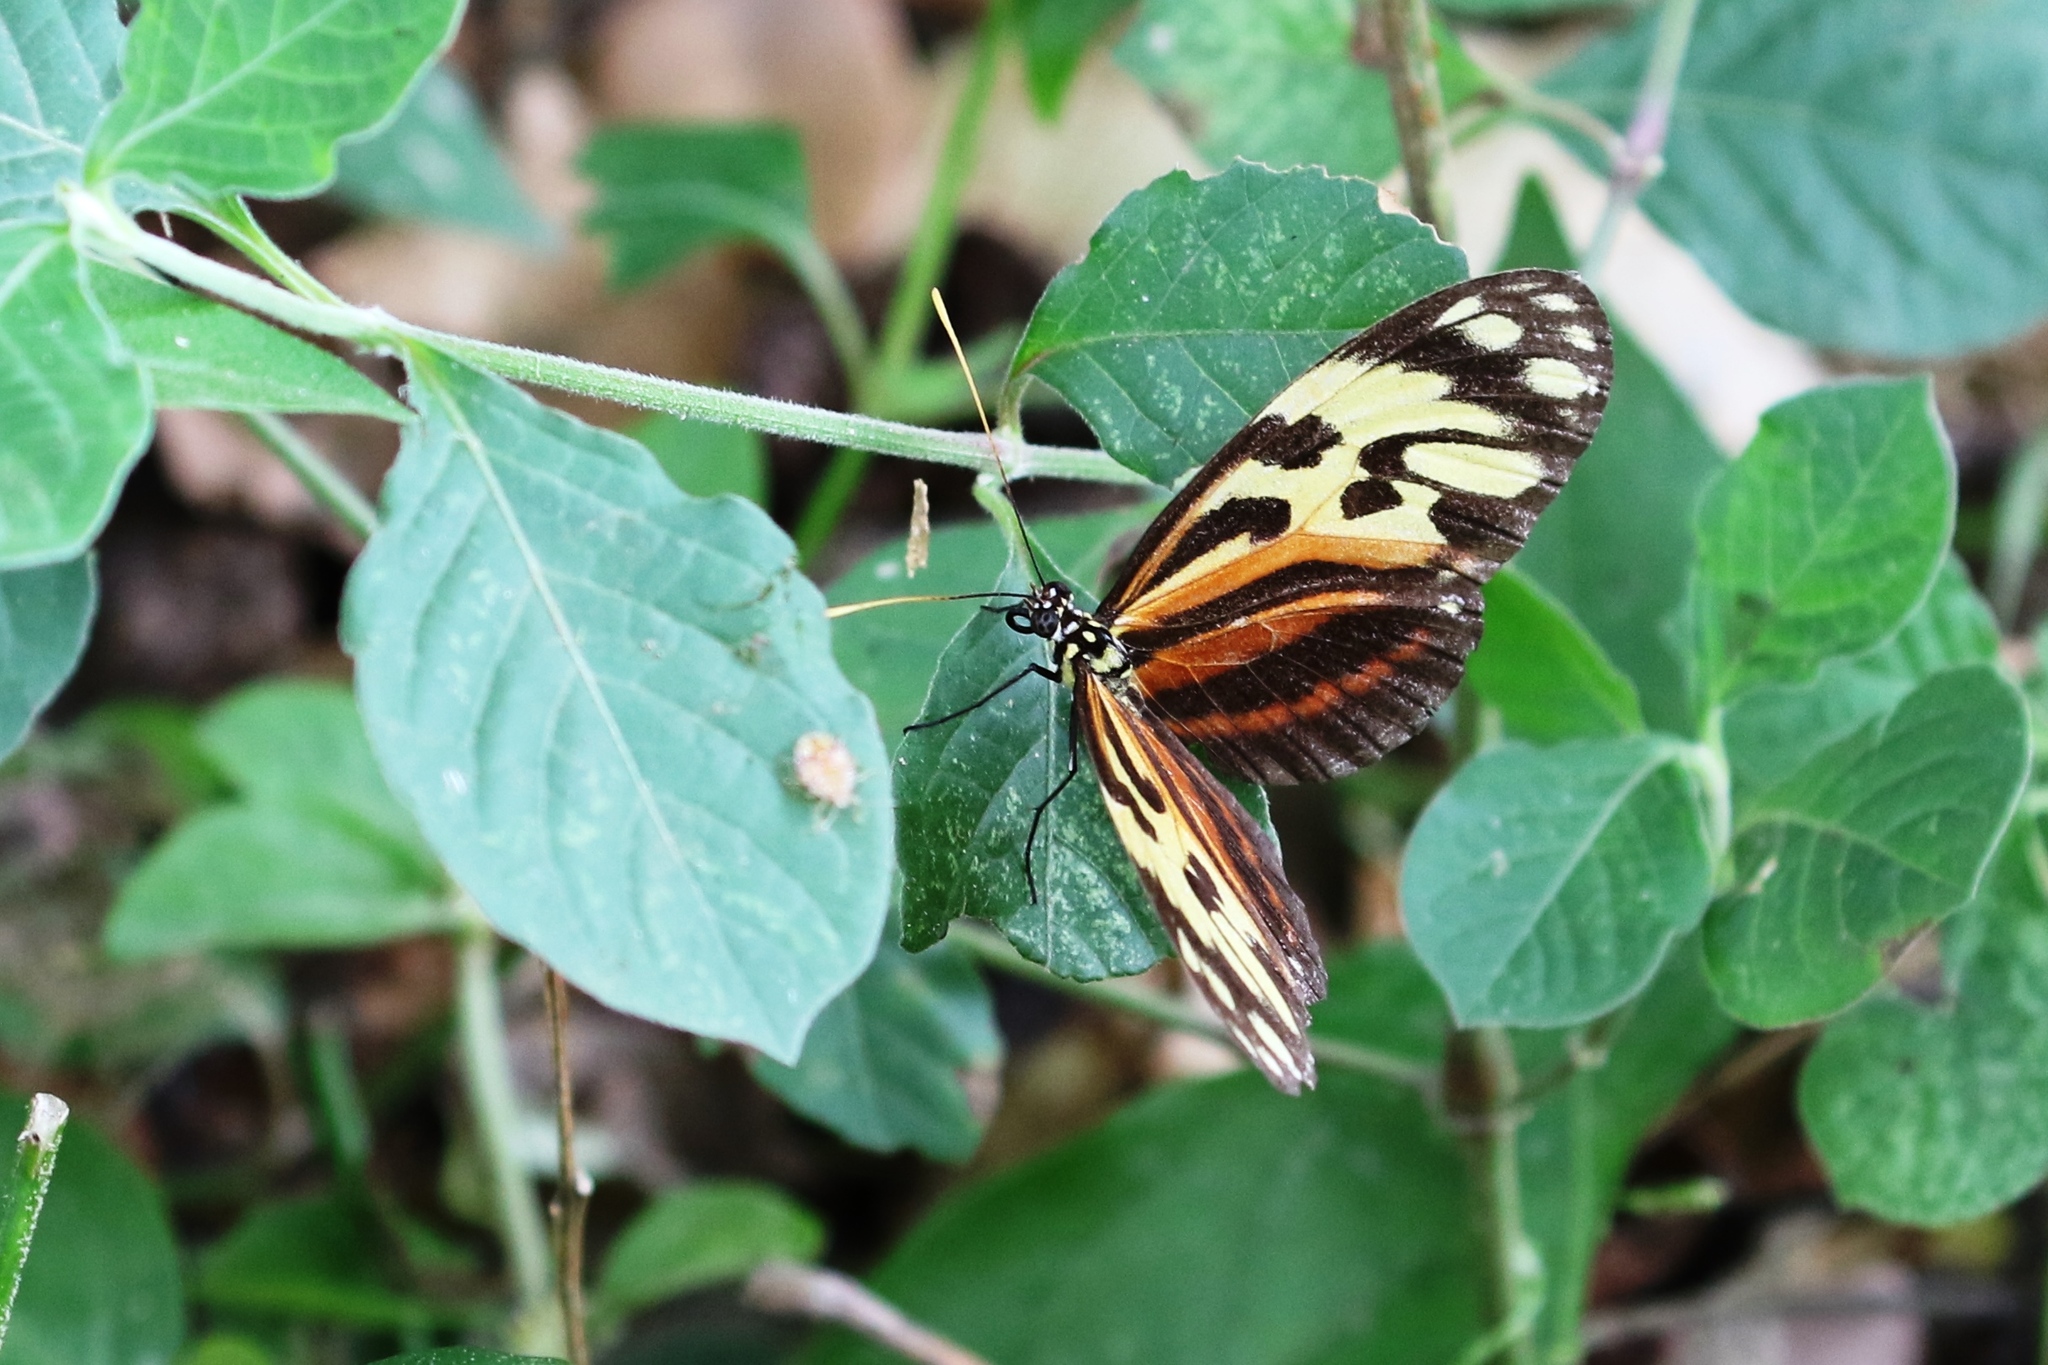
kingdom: Animalia
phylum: Arthropoda
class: Insecta
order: Lepidoptera
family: Nymphalidae
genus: Heliconius
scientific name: Heliconius ethilla
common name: Ethilia longwing
